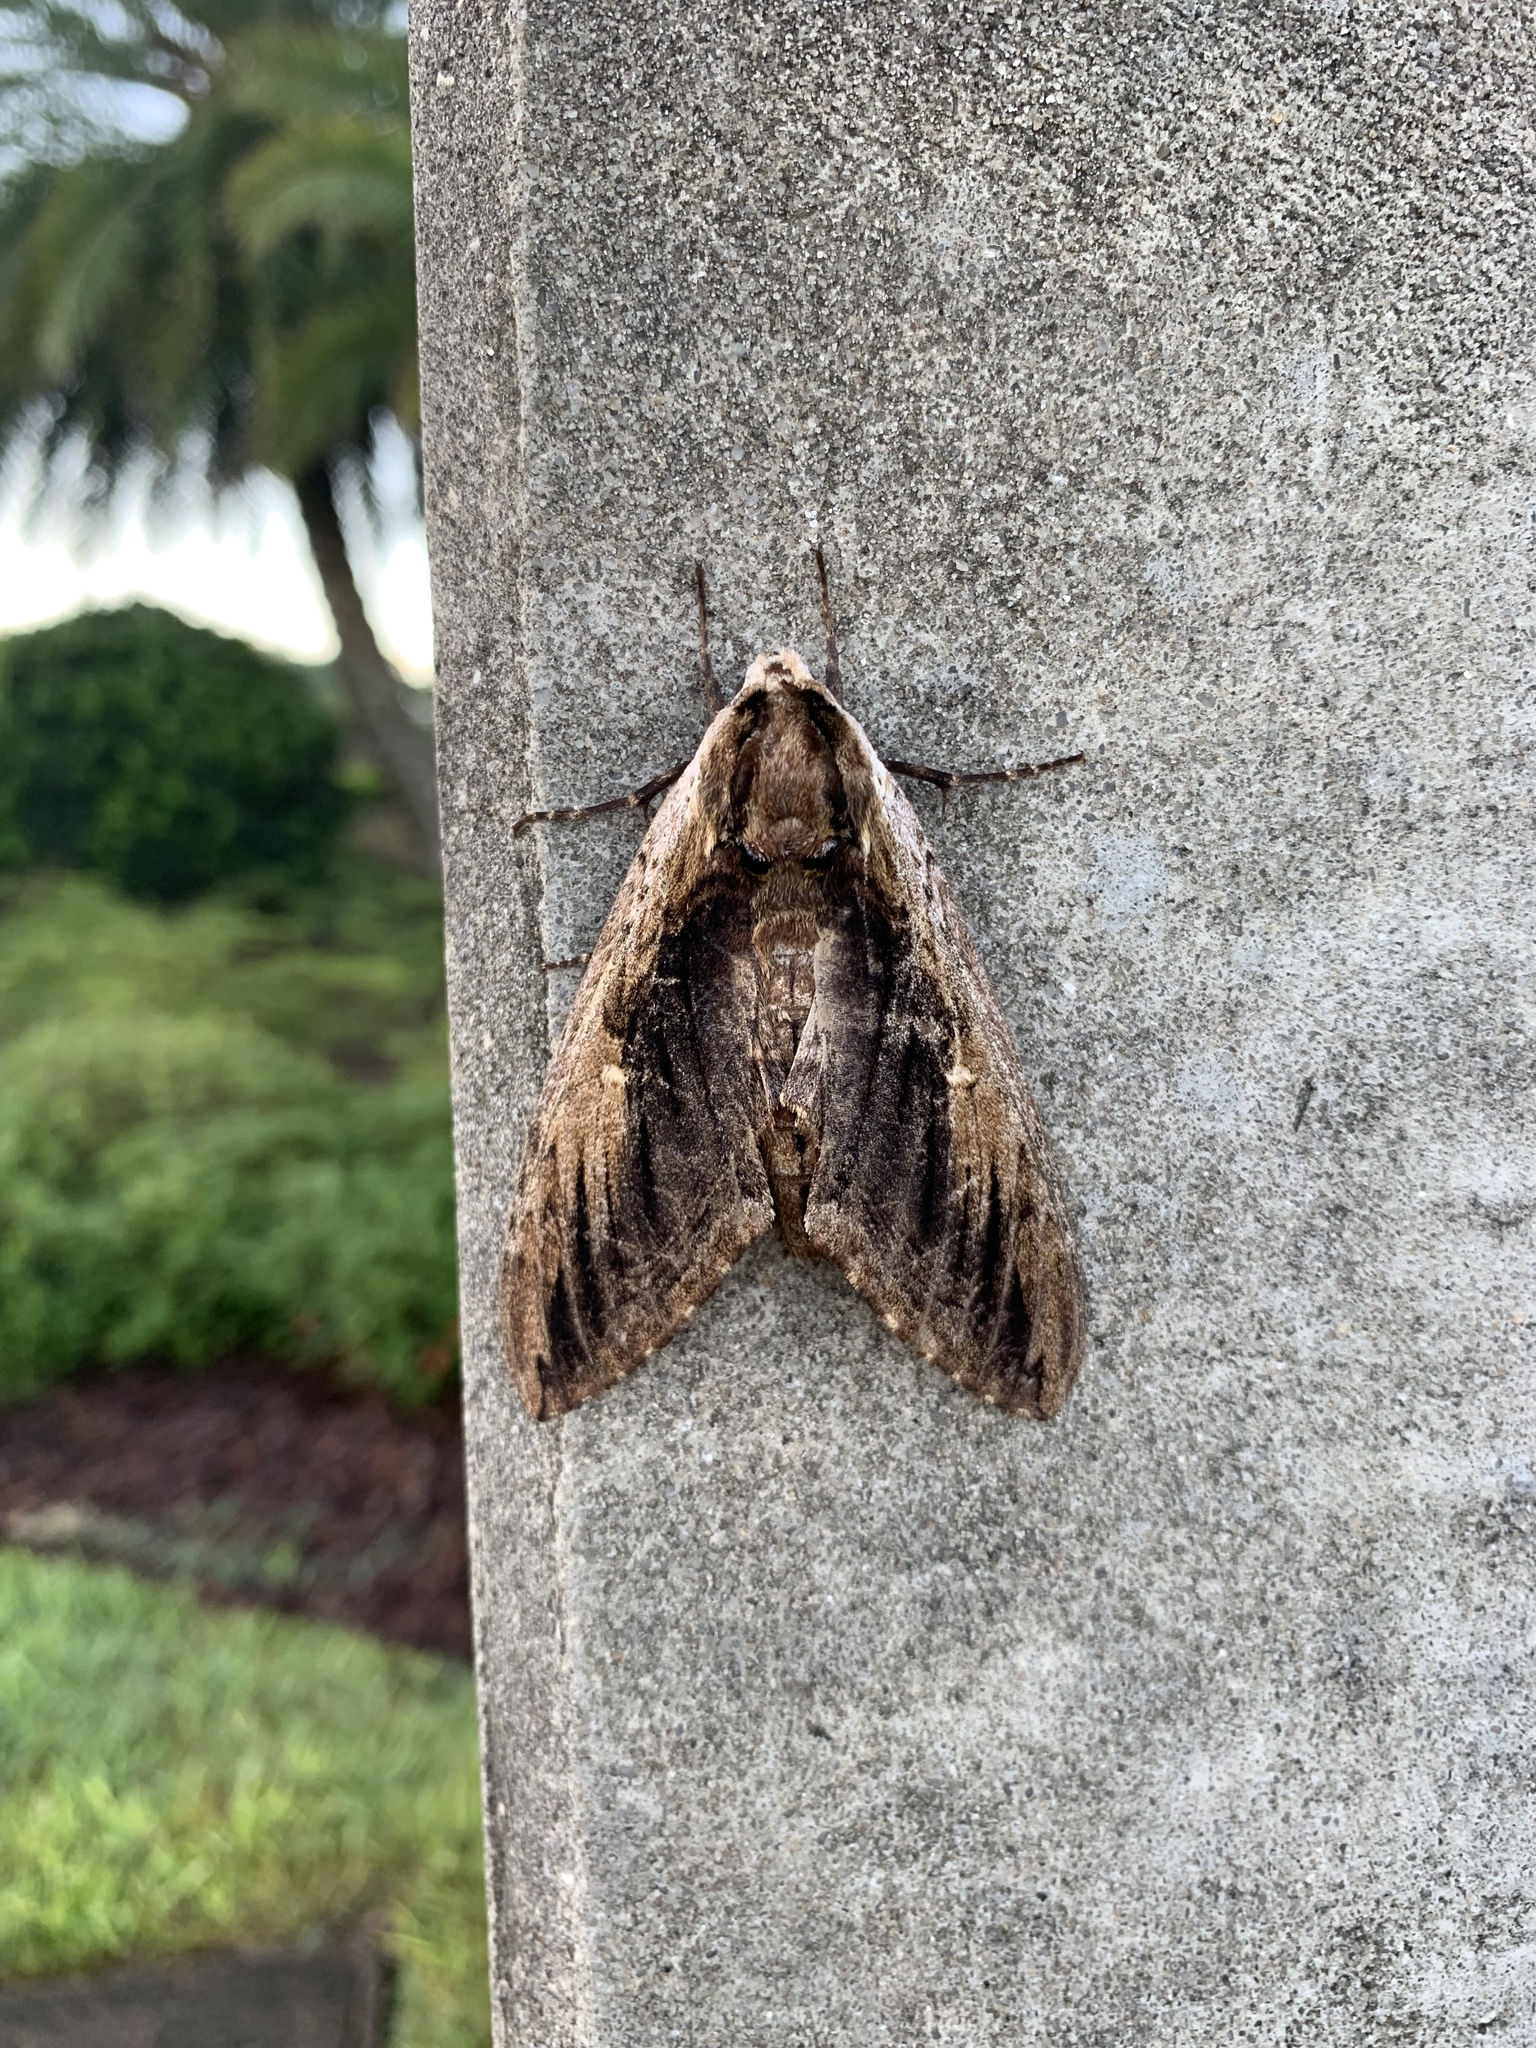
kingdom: Animalia
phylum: Arthropoda
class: Insecta
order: Lepidoptera
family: Sphingidae
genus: Ceratomia
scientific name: Ceratomia amyntor
